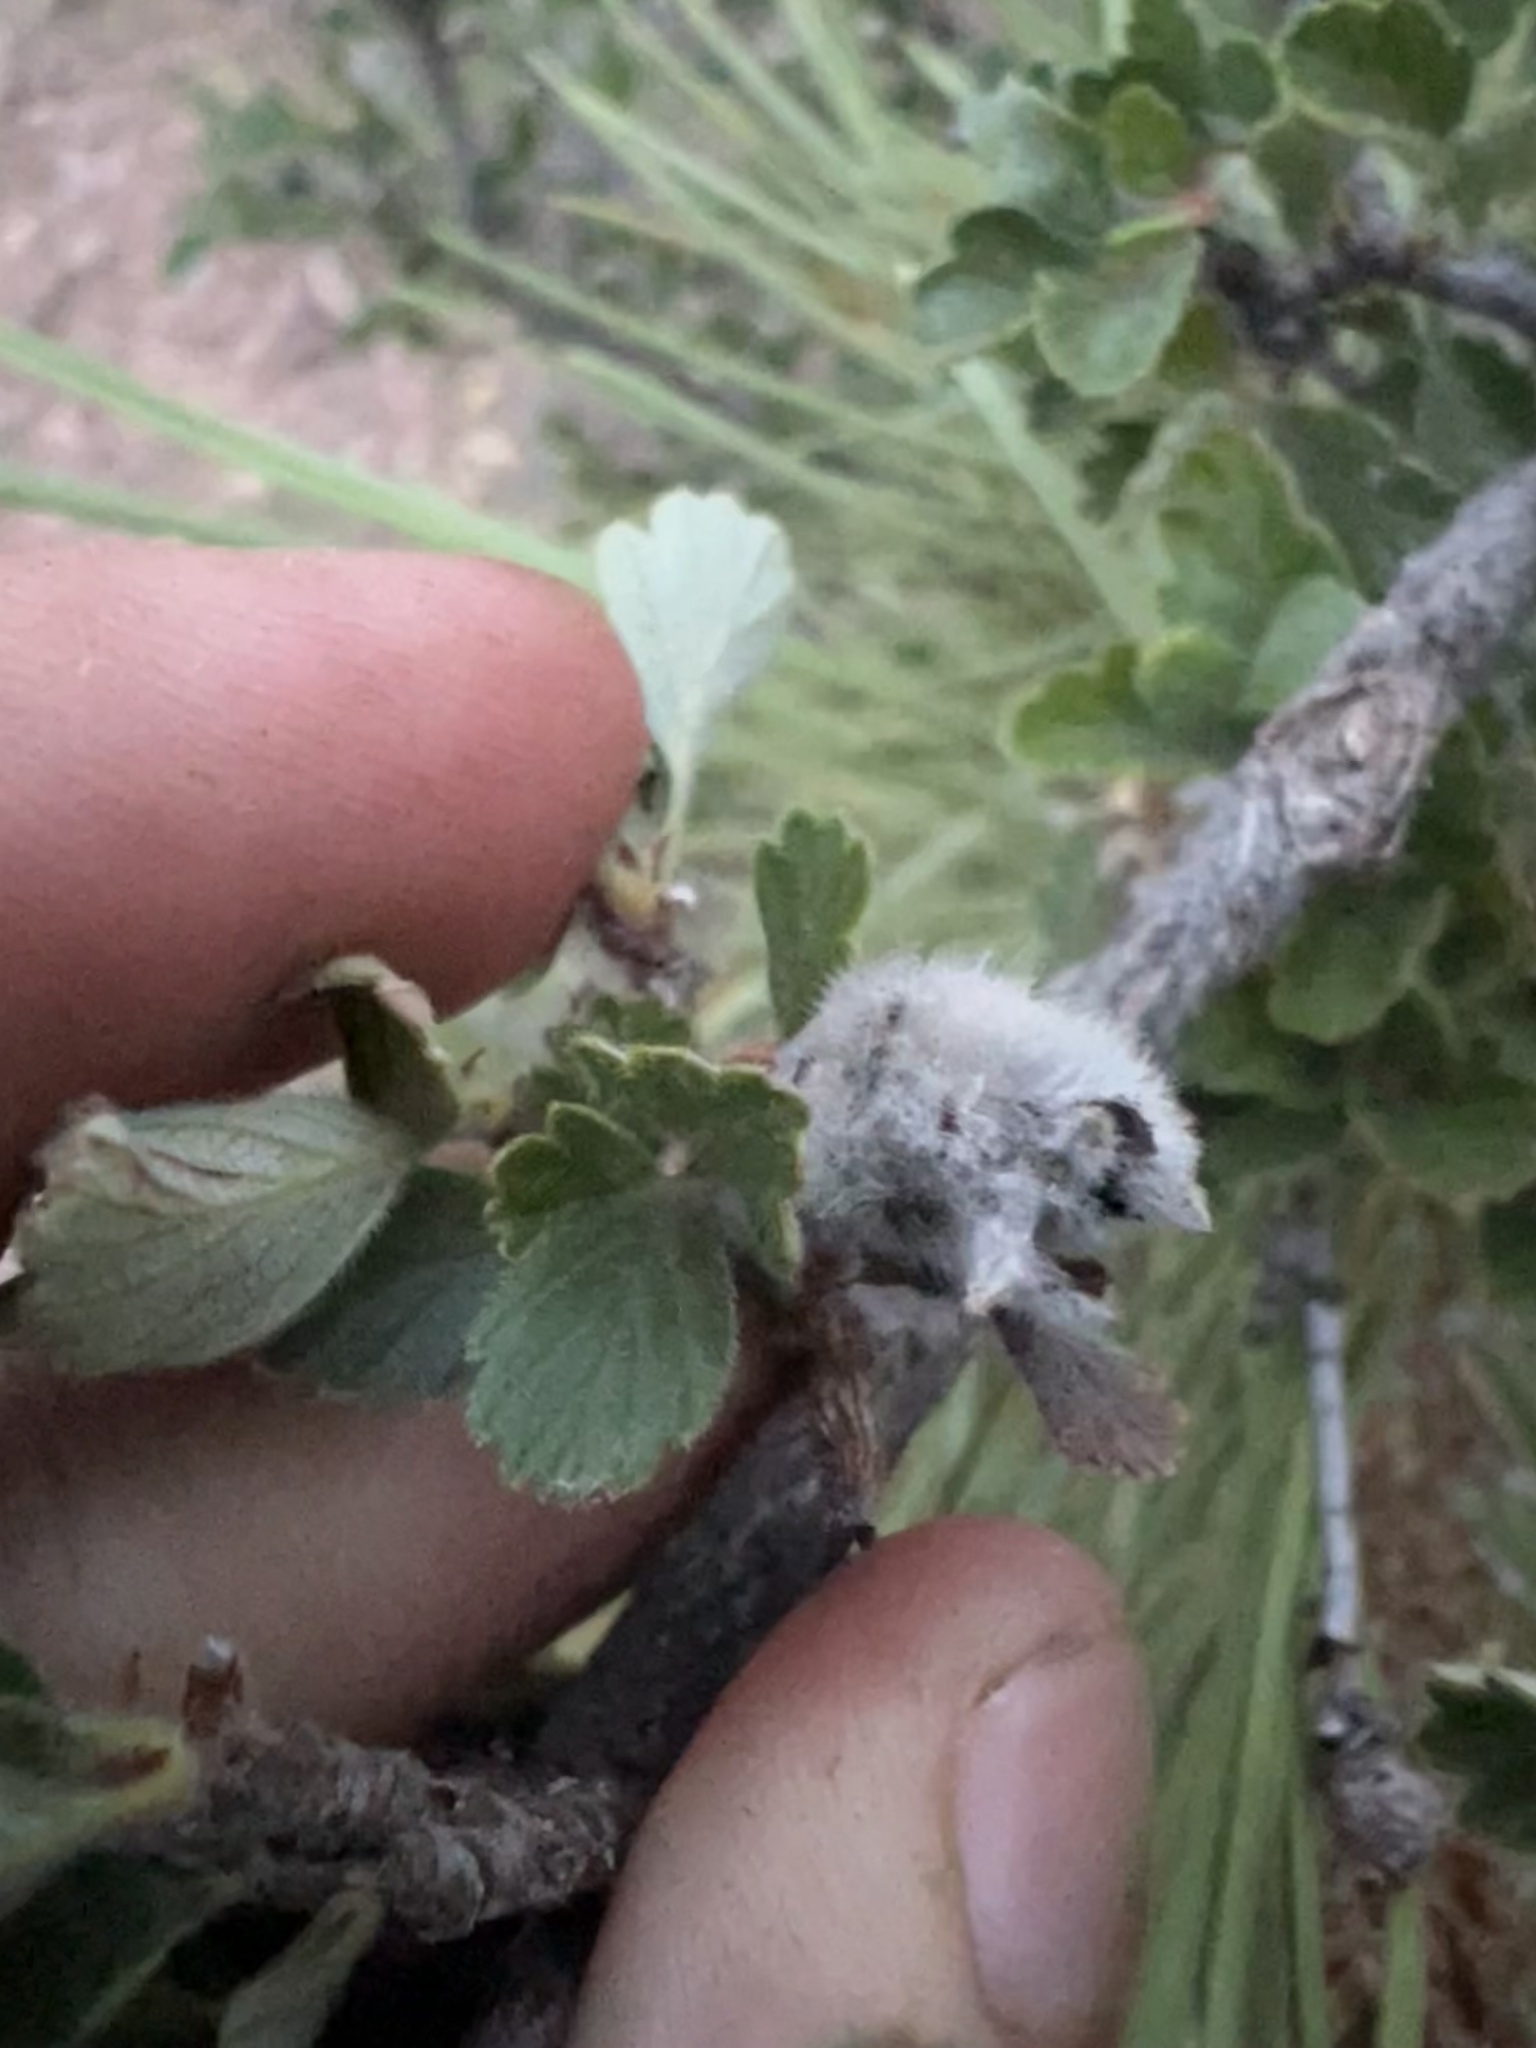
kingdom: Animalia
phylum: Arthropoda
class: Insecta
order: Diptera
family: Cecidomyiidae
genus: Dasineura
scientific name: Dasineura cercocarpi
